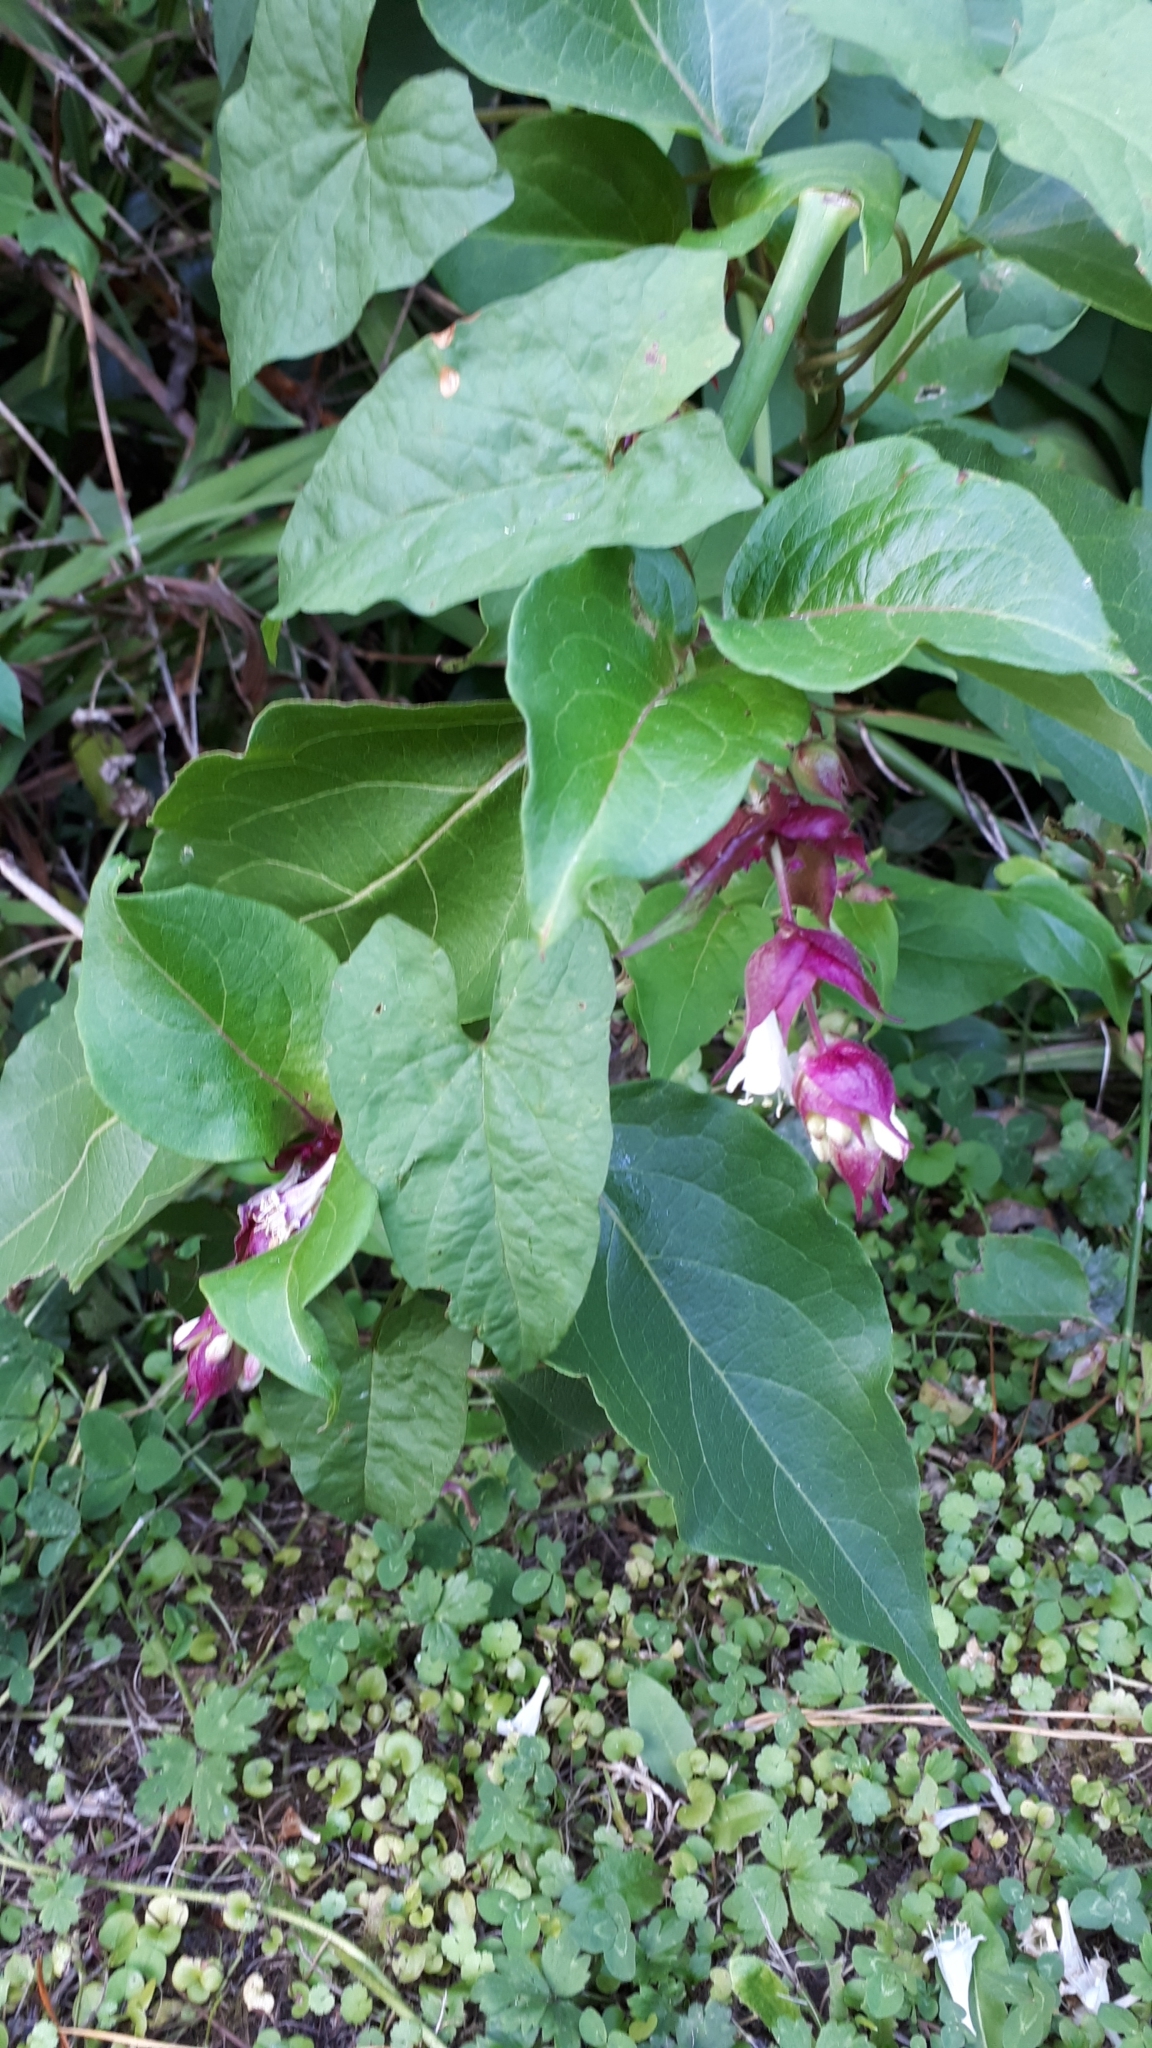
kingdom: Plantae
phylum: Tracheophyta
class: Magnoliopsida
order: Dipsacales
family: Caprifoliaceae
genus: Leycesteria
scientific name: Leycesteria formosa
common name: Himalayan honeysuckle
